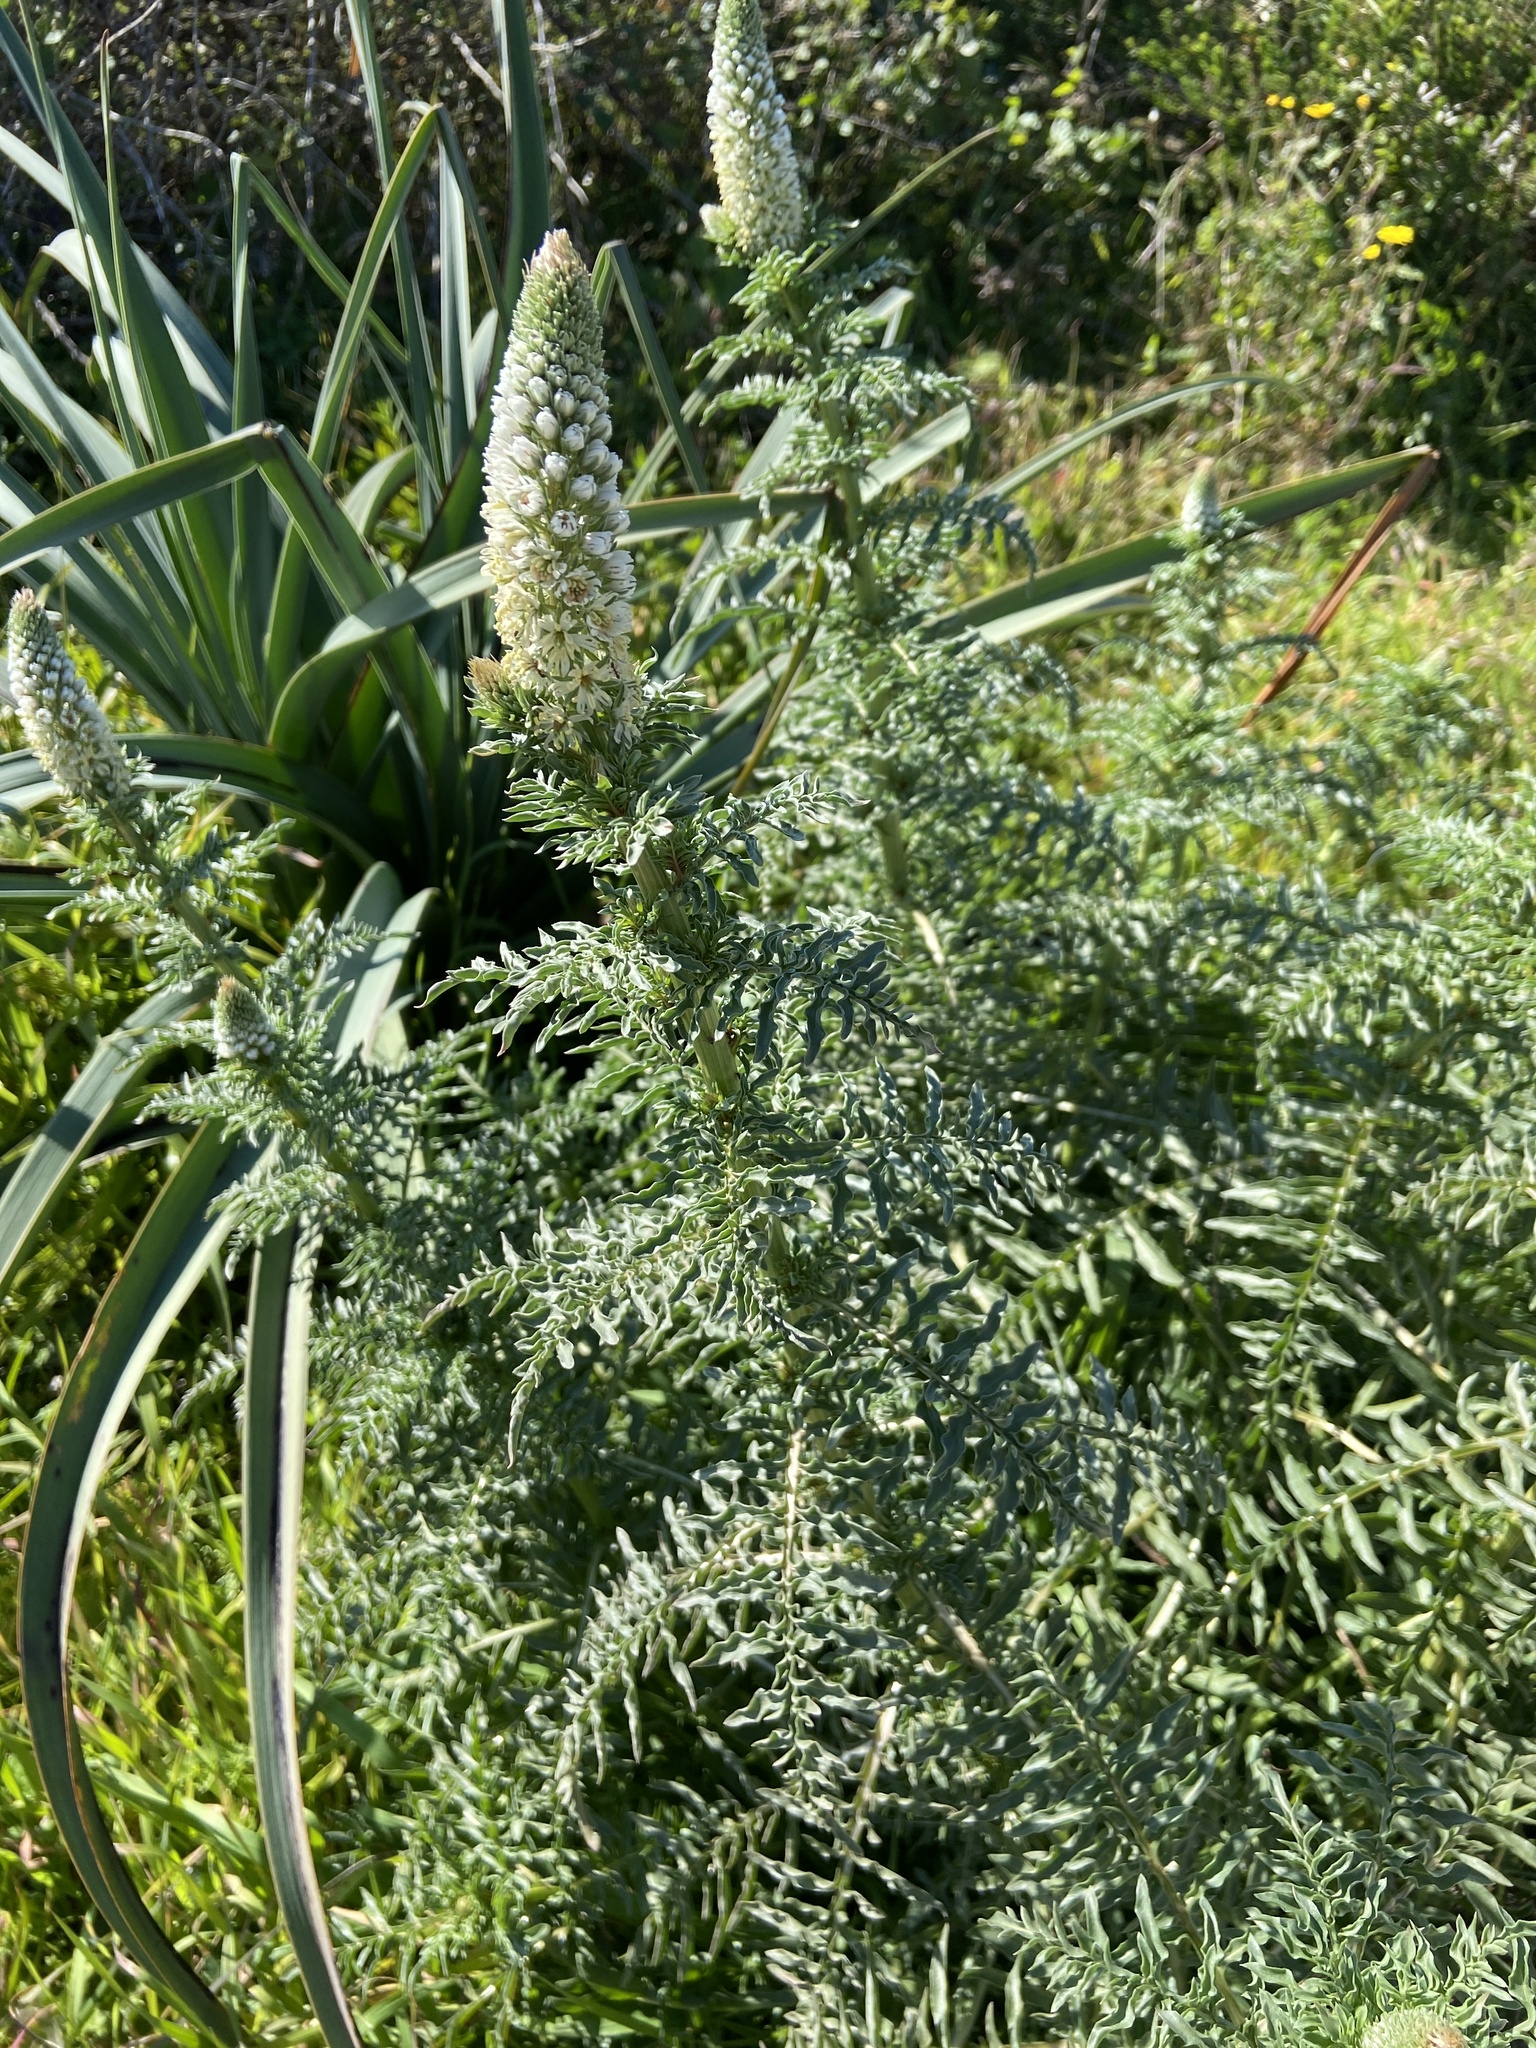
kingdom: Plantae
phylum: Tracheophyta
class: Magnoliopsida
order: Brassicales
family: Resedaceae
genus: Reseda
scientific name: Reseda alba
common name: White mignonette
